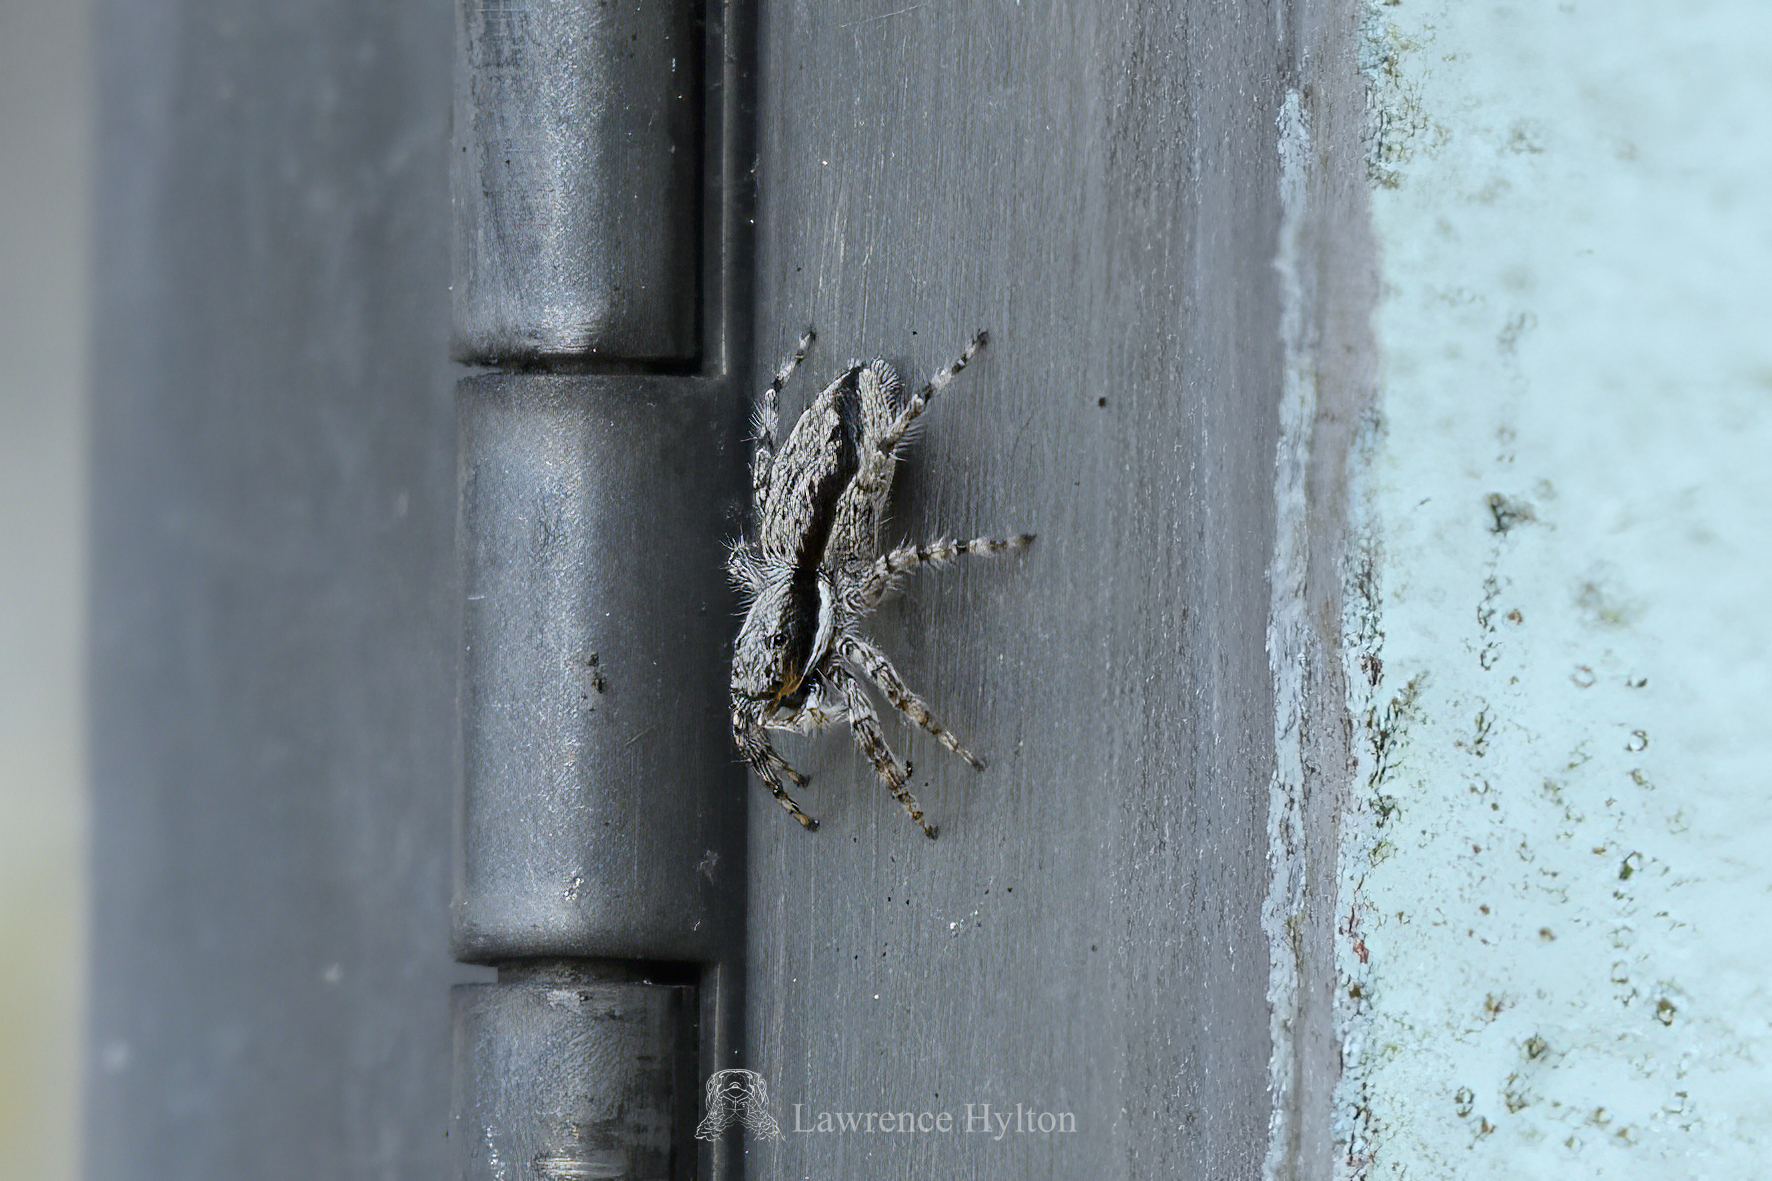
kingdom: Animalia
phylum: Arthropoda
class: Arachnida
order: Araneae
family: Salticidae
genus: Menemerus
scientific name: Menemerus bivittatus
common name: Gray wall jumper
